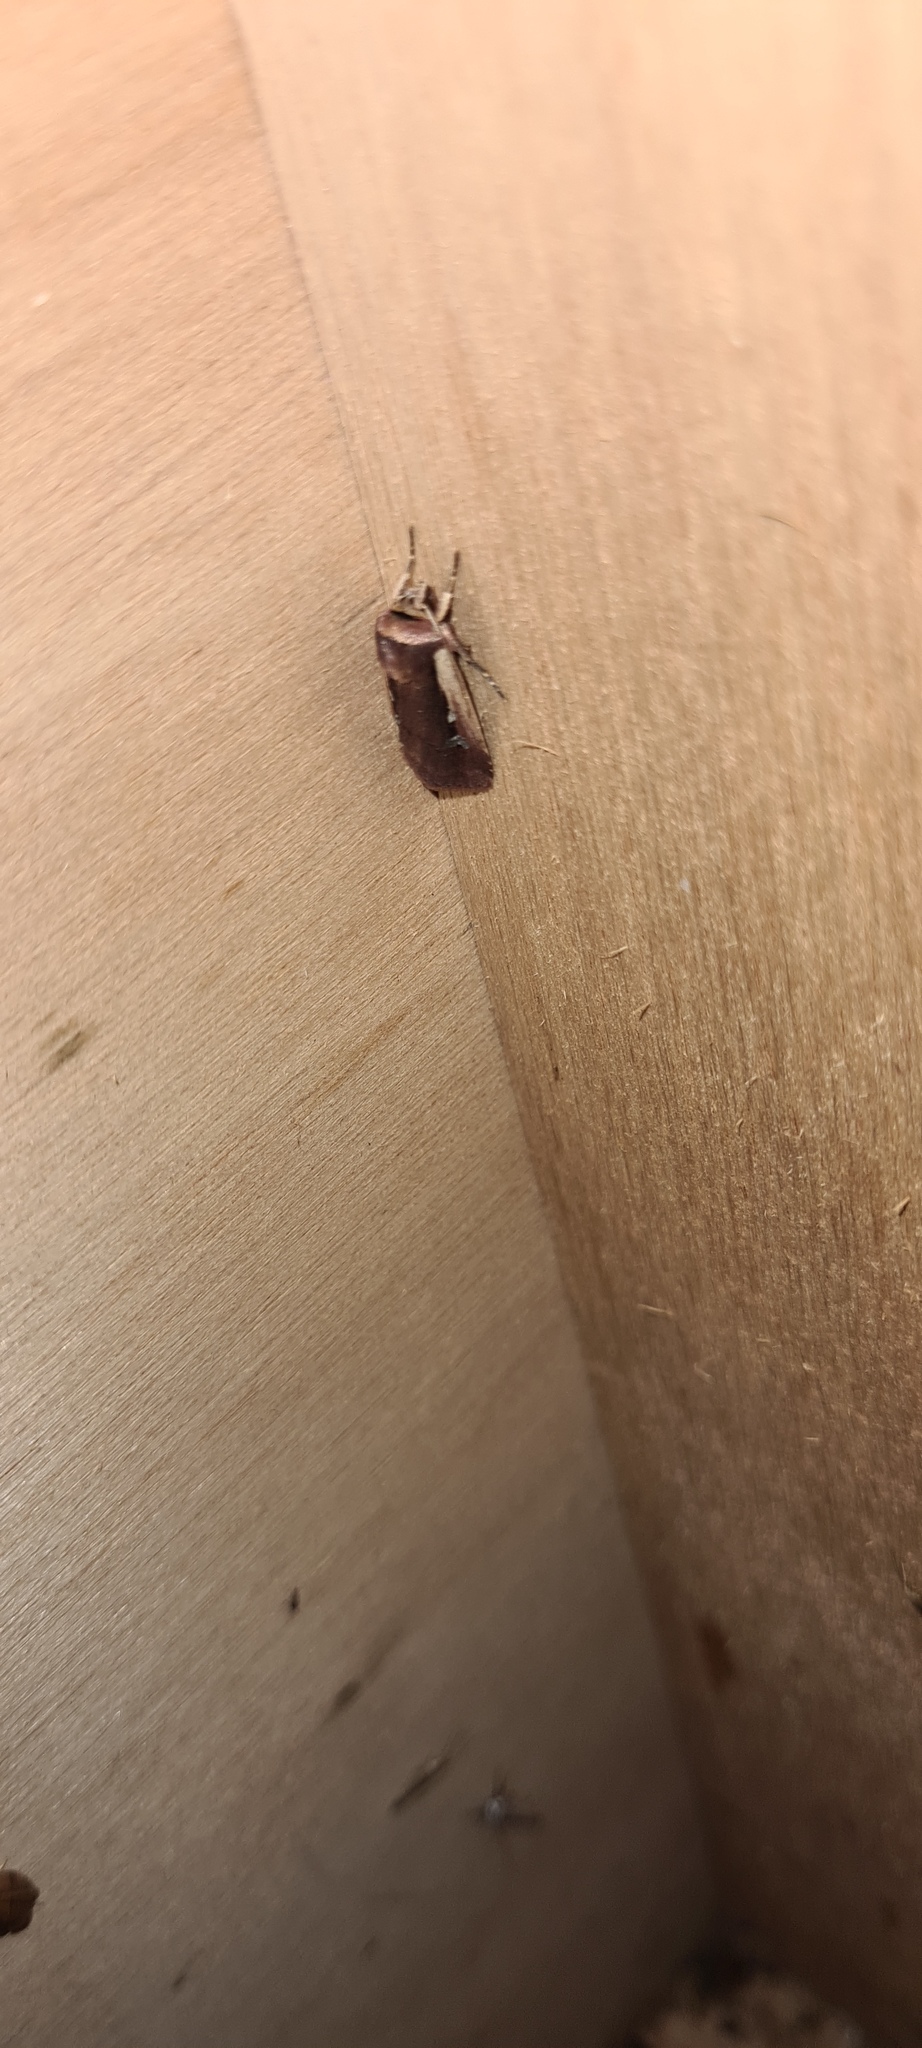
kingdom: Animalia
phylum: Arthropoda
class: Insecta
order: Lepidoptera
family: Noctuidae
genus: Ochropleura
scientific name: Ochropleura plecta
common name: Flame shoulder
